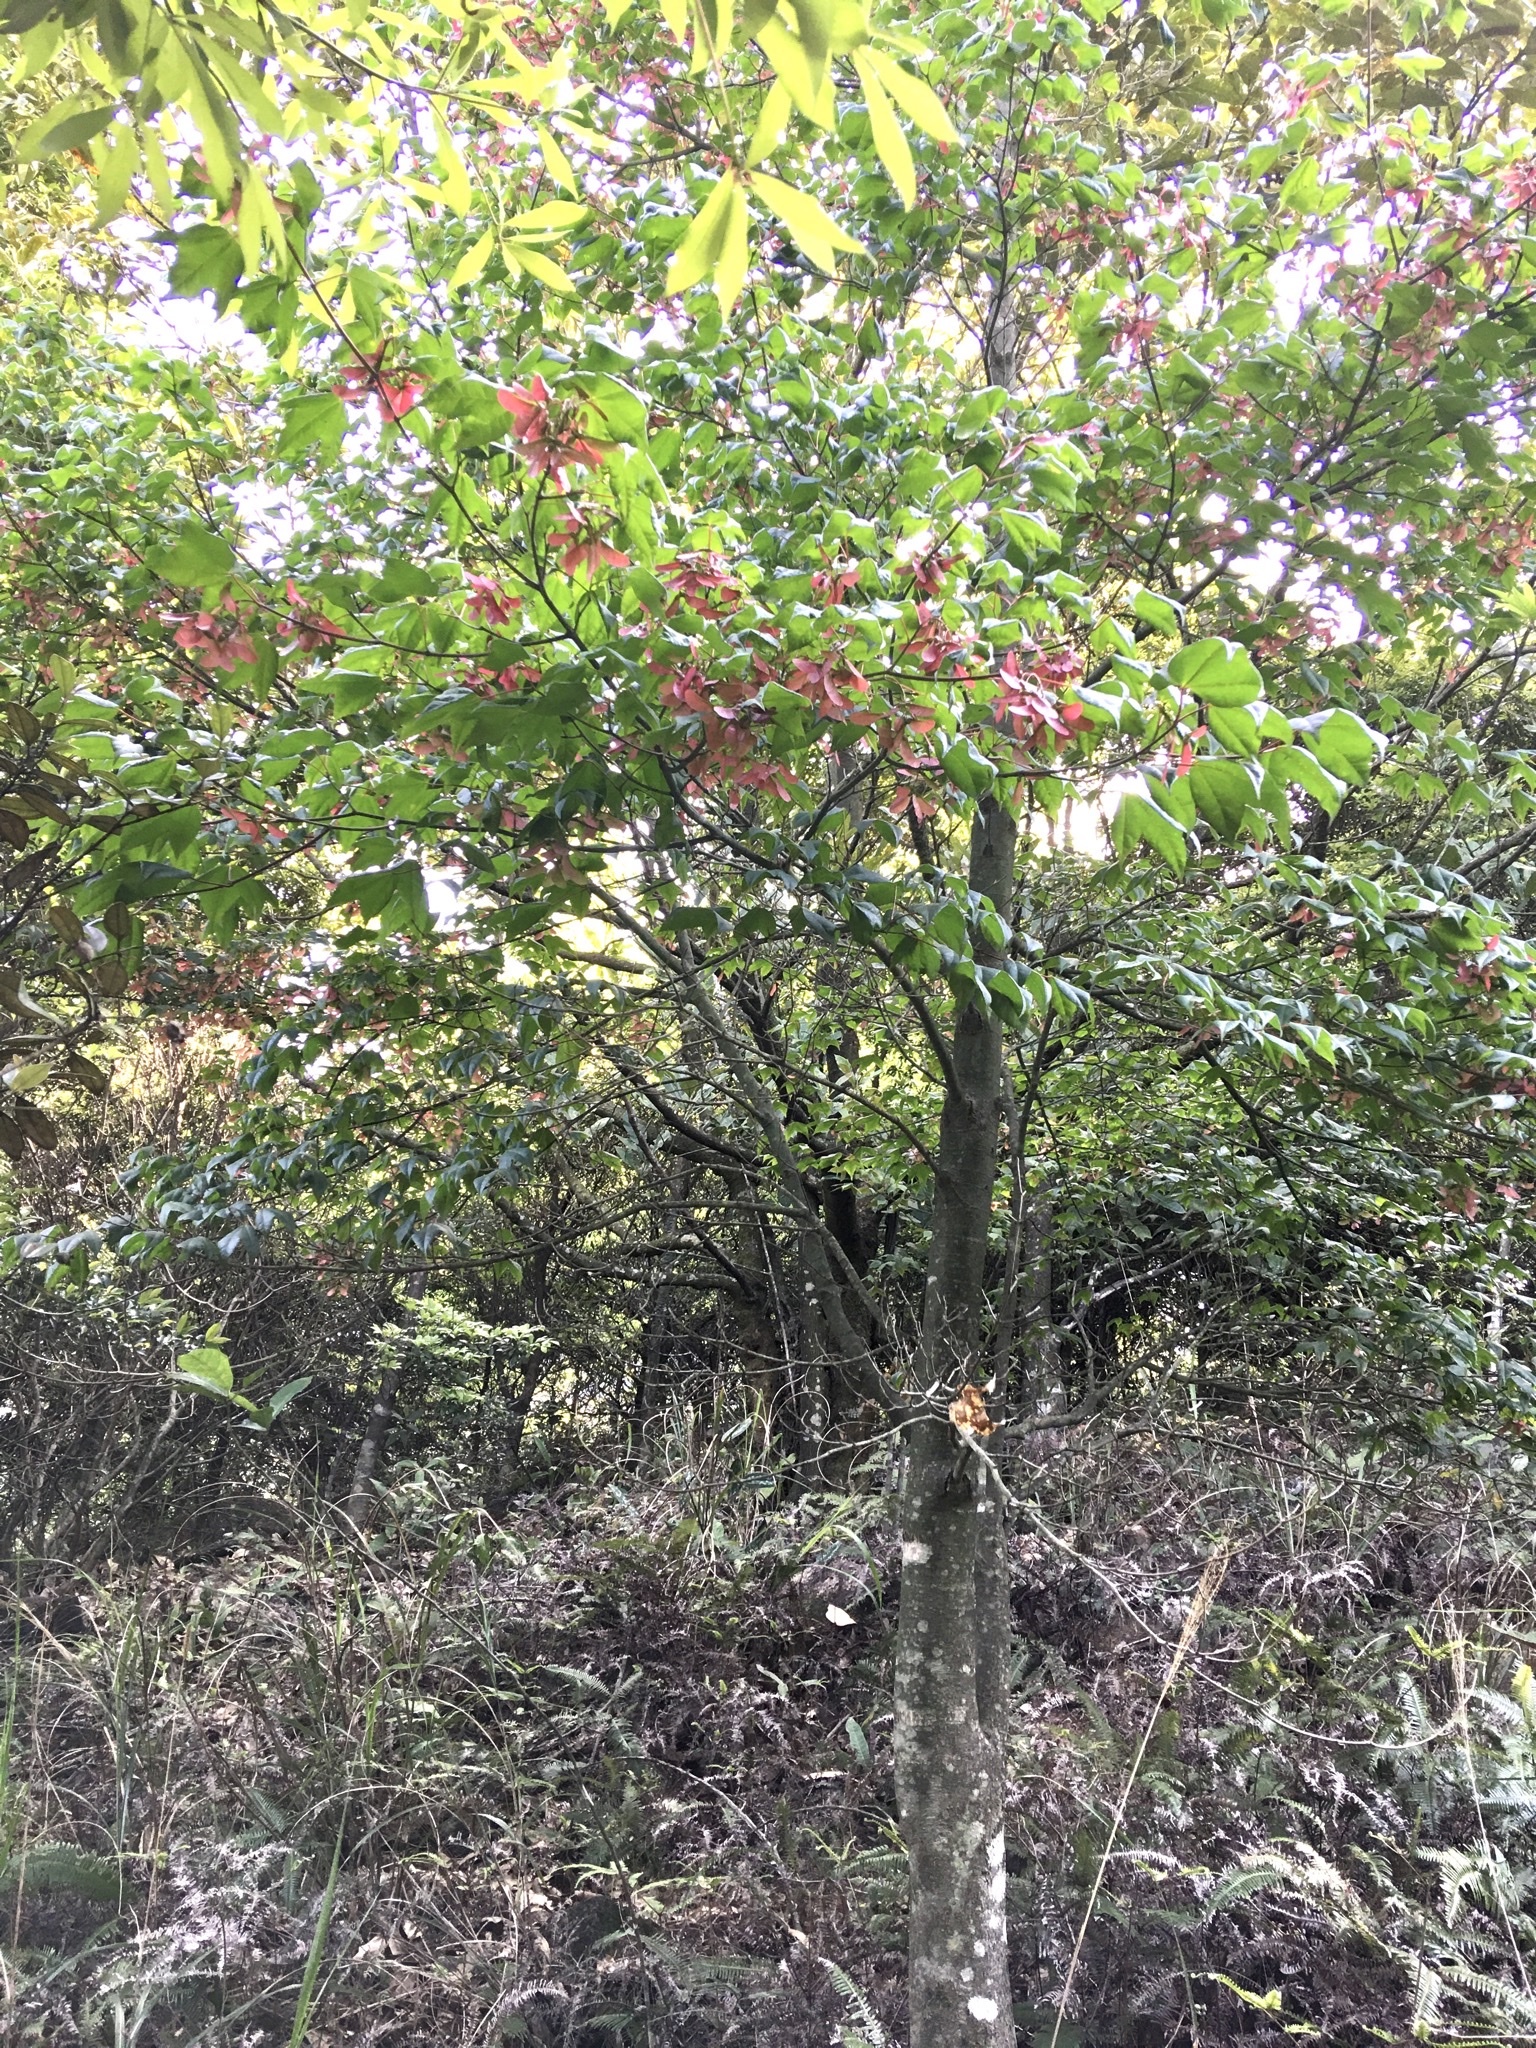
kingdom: Plantae
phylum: Tracheophyta
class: Magnoliopsida
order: Sapindales
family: Sapindaceae
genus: Acer
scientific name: Acer tutcheri
